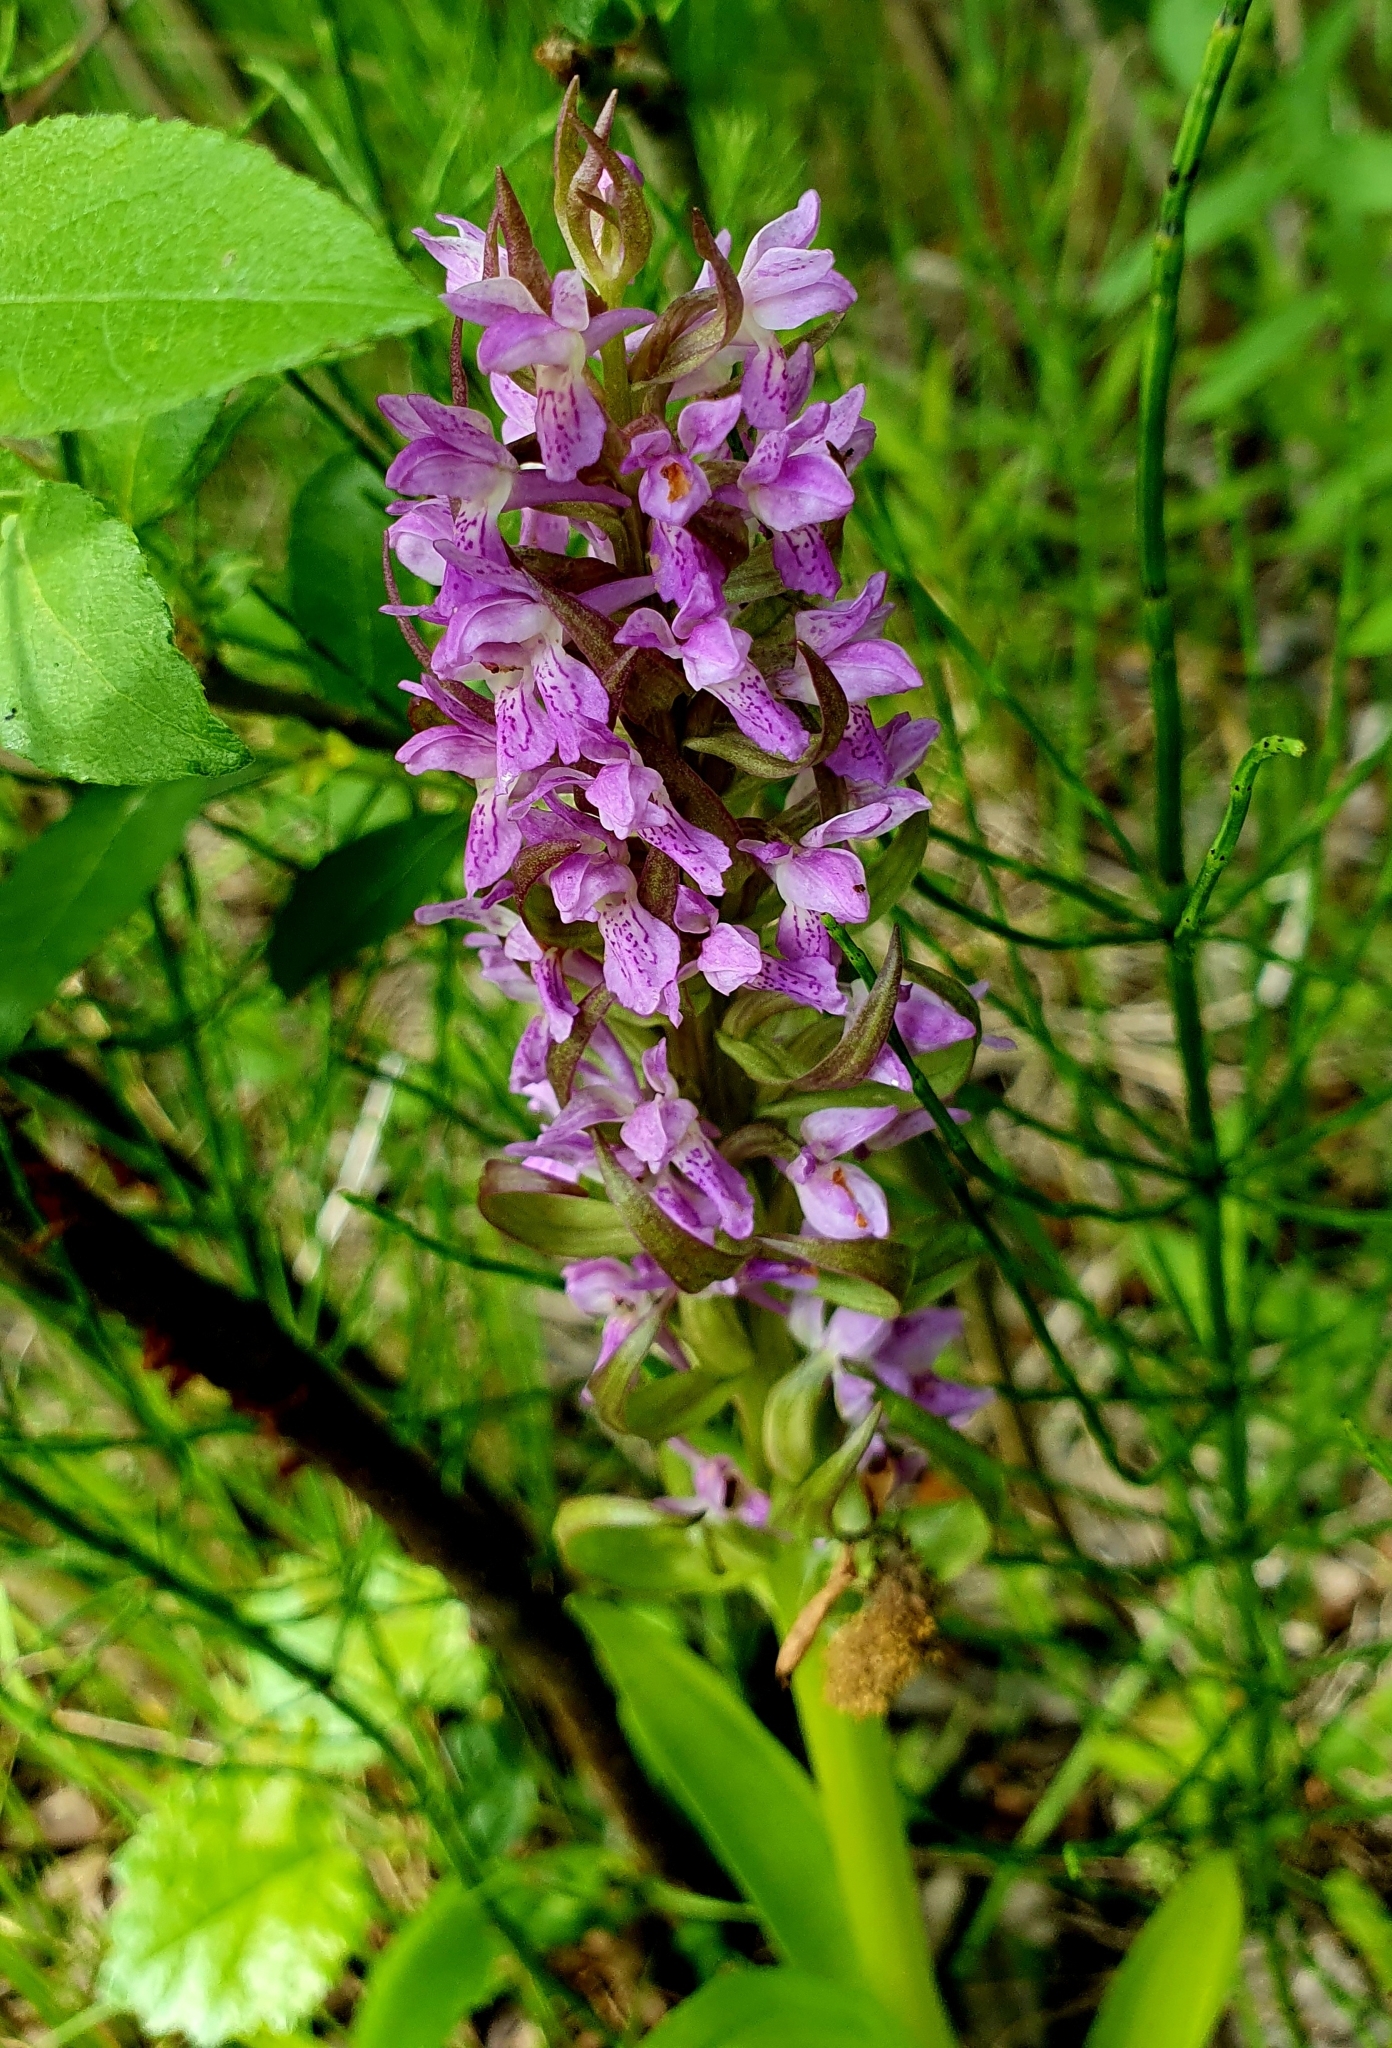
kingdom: Plantae
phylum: Tracheophyta
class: Liliopsida
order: Asparagales
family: Orchidaceae
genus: Dactylorhiza
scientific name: Dactylorhiza incarnata
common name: Early marsh-orchid
